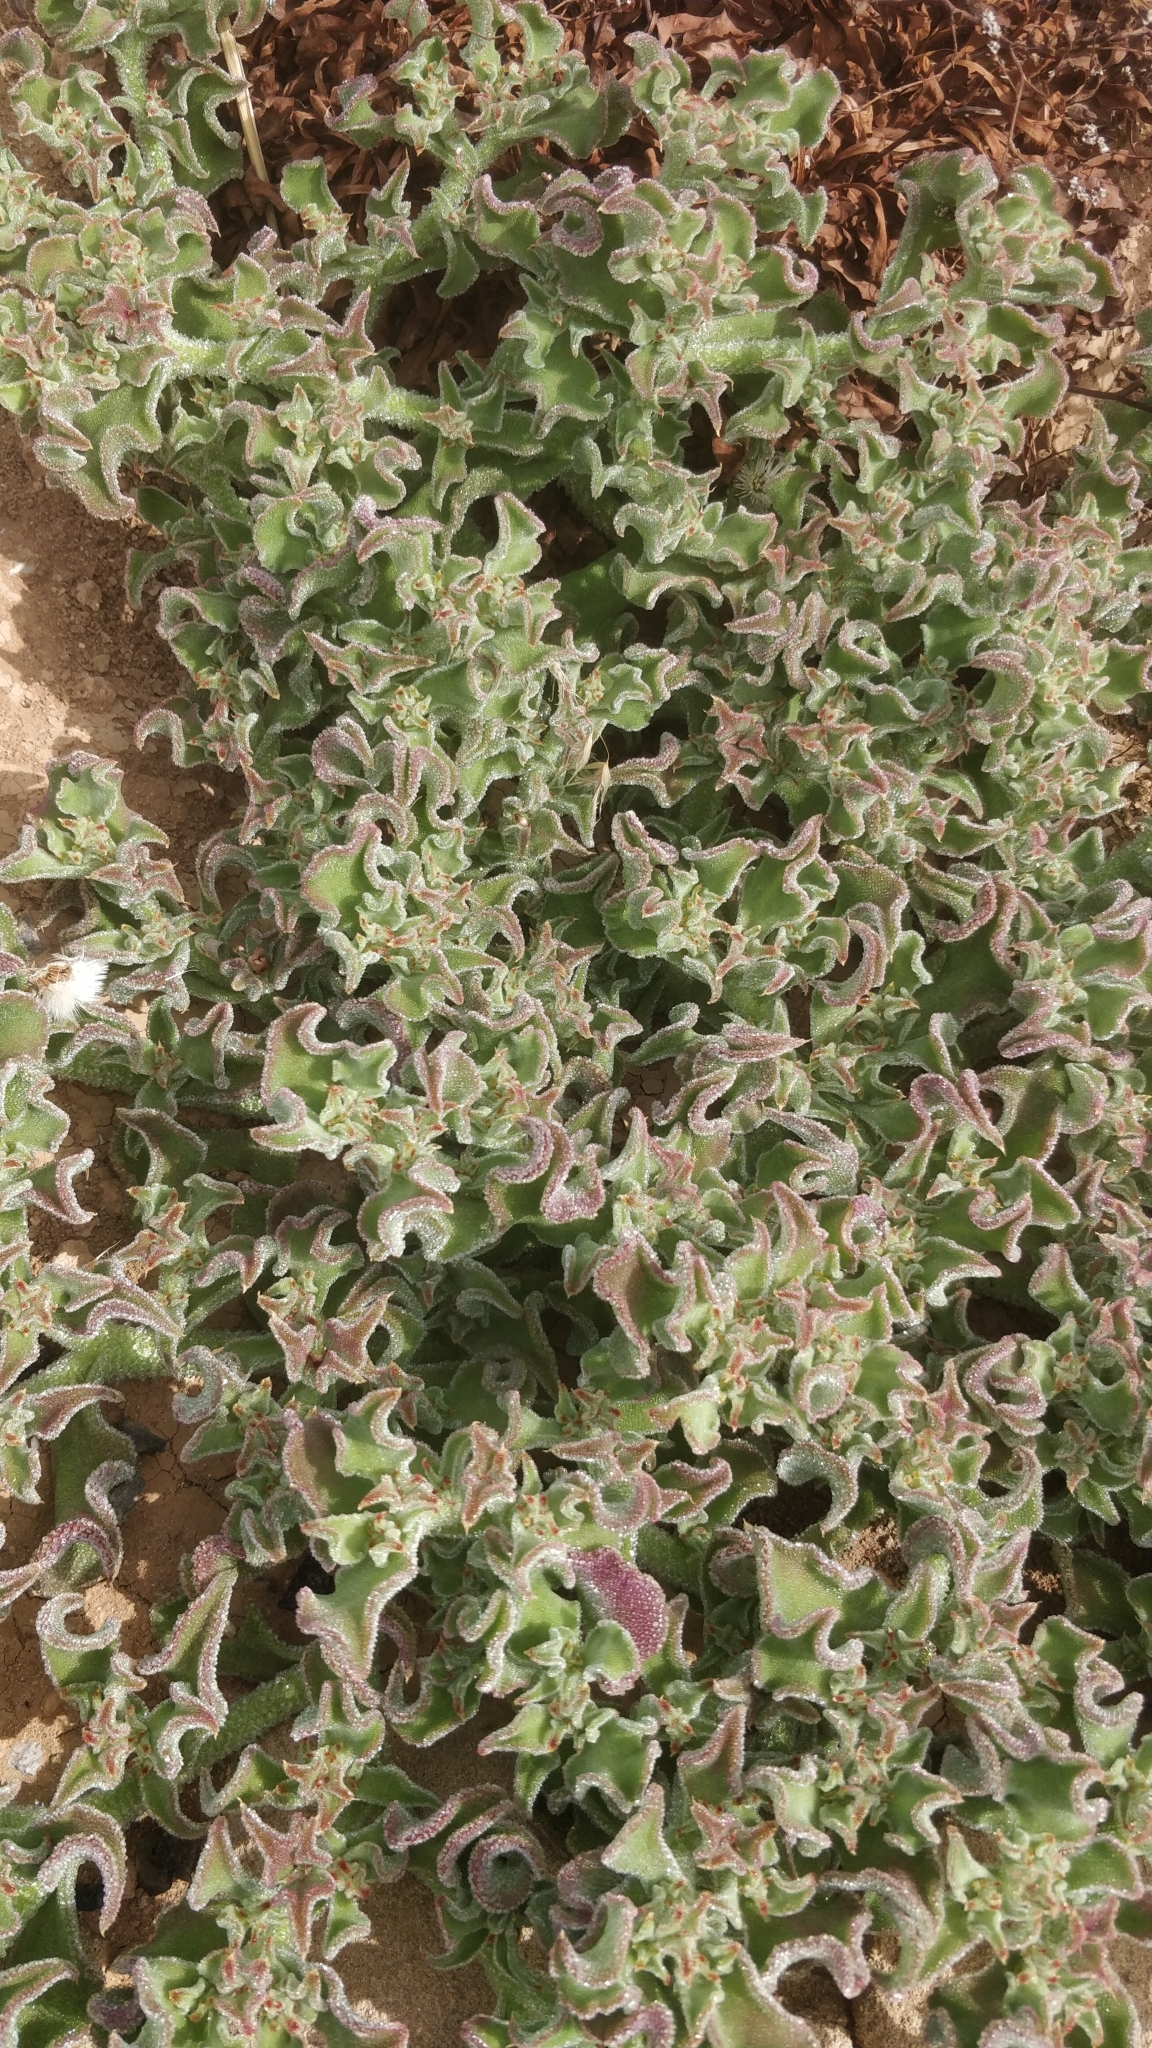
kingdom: Plantae
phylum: Tracheophyta
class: Magnoliopsida
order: Caryophyllales
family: Aizoaceae
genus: Mesembryanthemum
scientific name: Mesembryanthemum crystallinum
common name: Common iceplant
